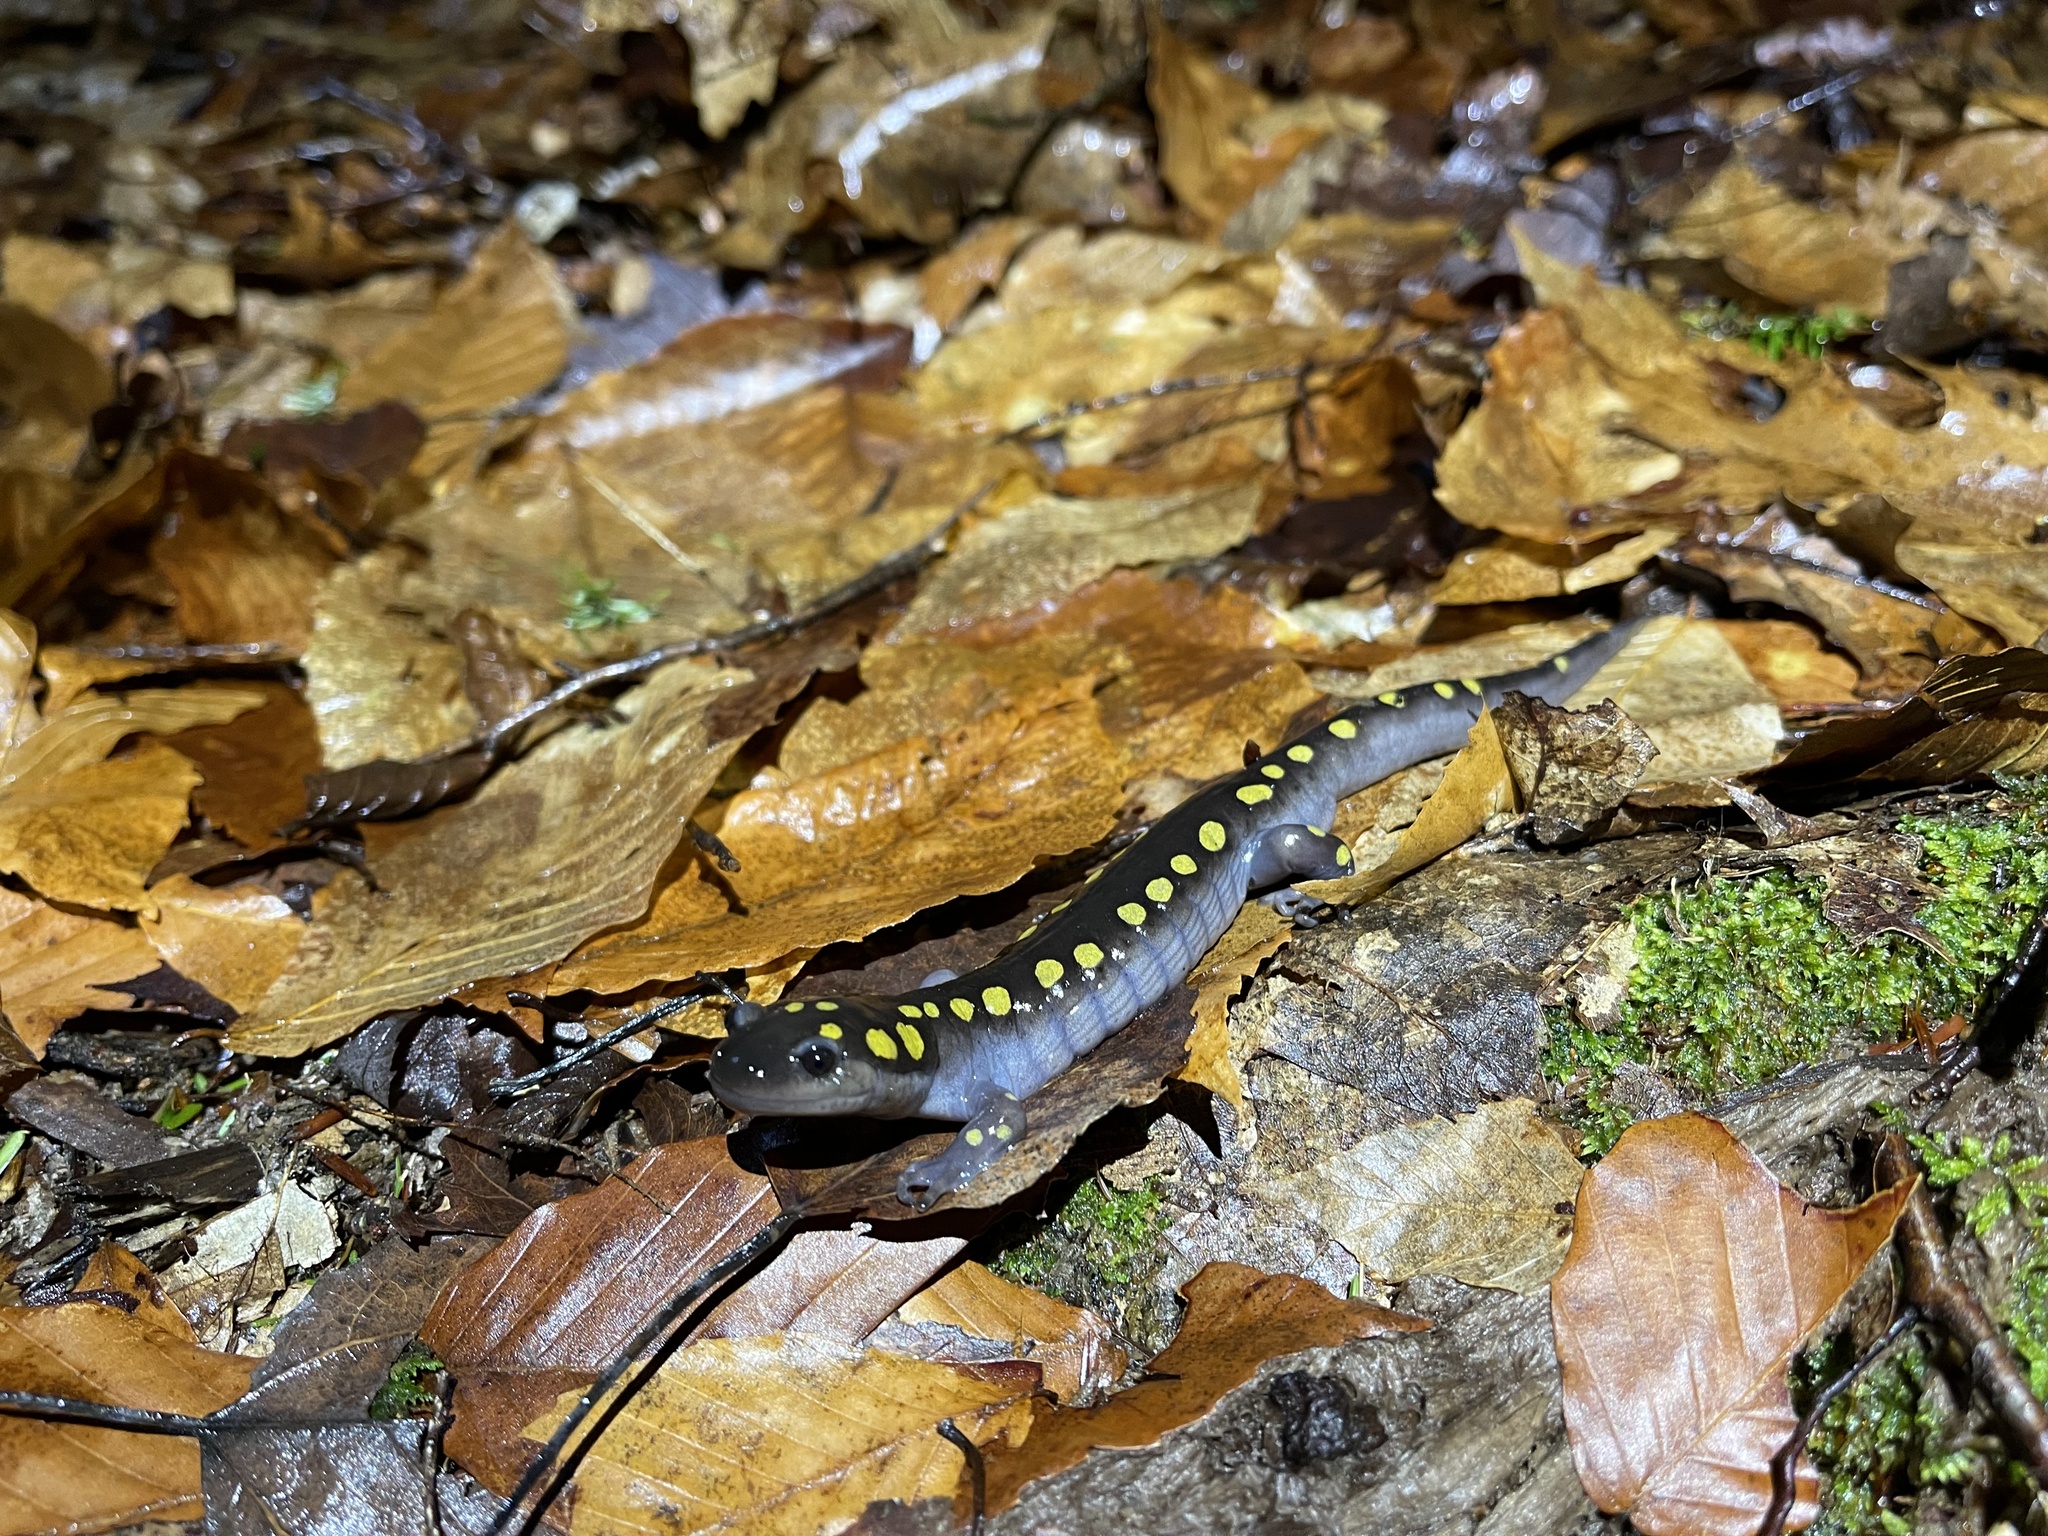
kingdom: Animalia
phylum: Chordata
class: Amphibia
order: Caudata
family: Ambystomatidae
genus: Ambystoma
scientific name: Ambystoma maculatum
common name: Spotted salamander
